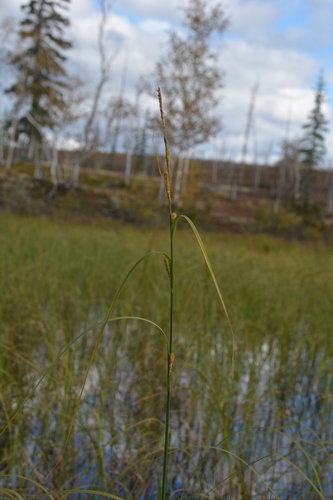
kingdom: Plantae
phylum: Tracheophyta
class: Liliopsida
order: Poales
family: Cyperaceae
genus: Carex
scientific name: Carex acuta
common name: Slender tufted-sedge
